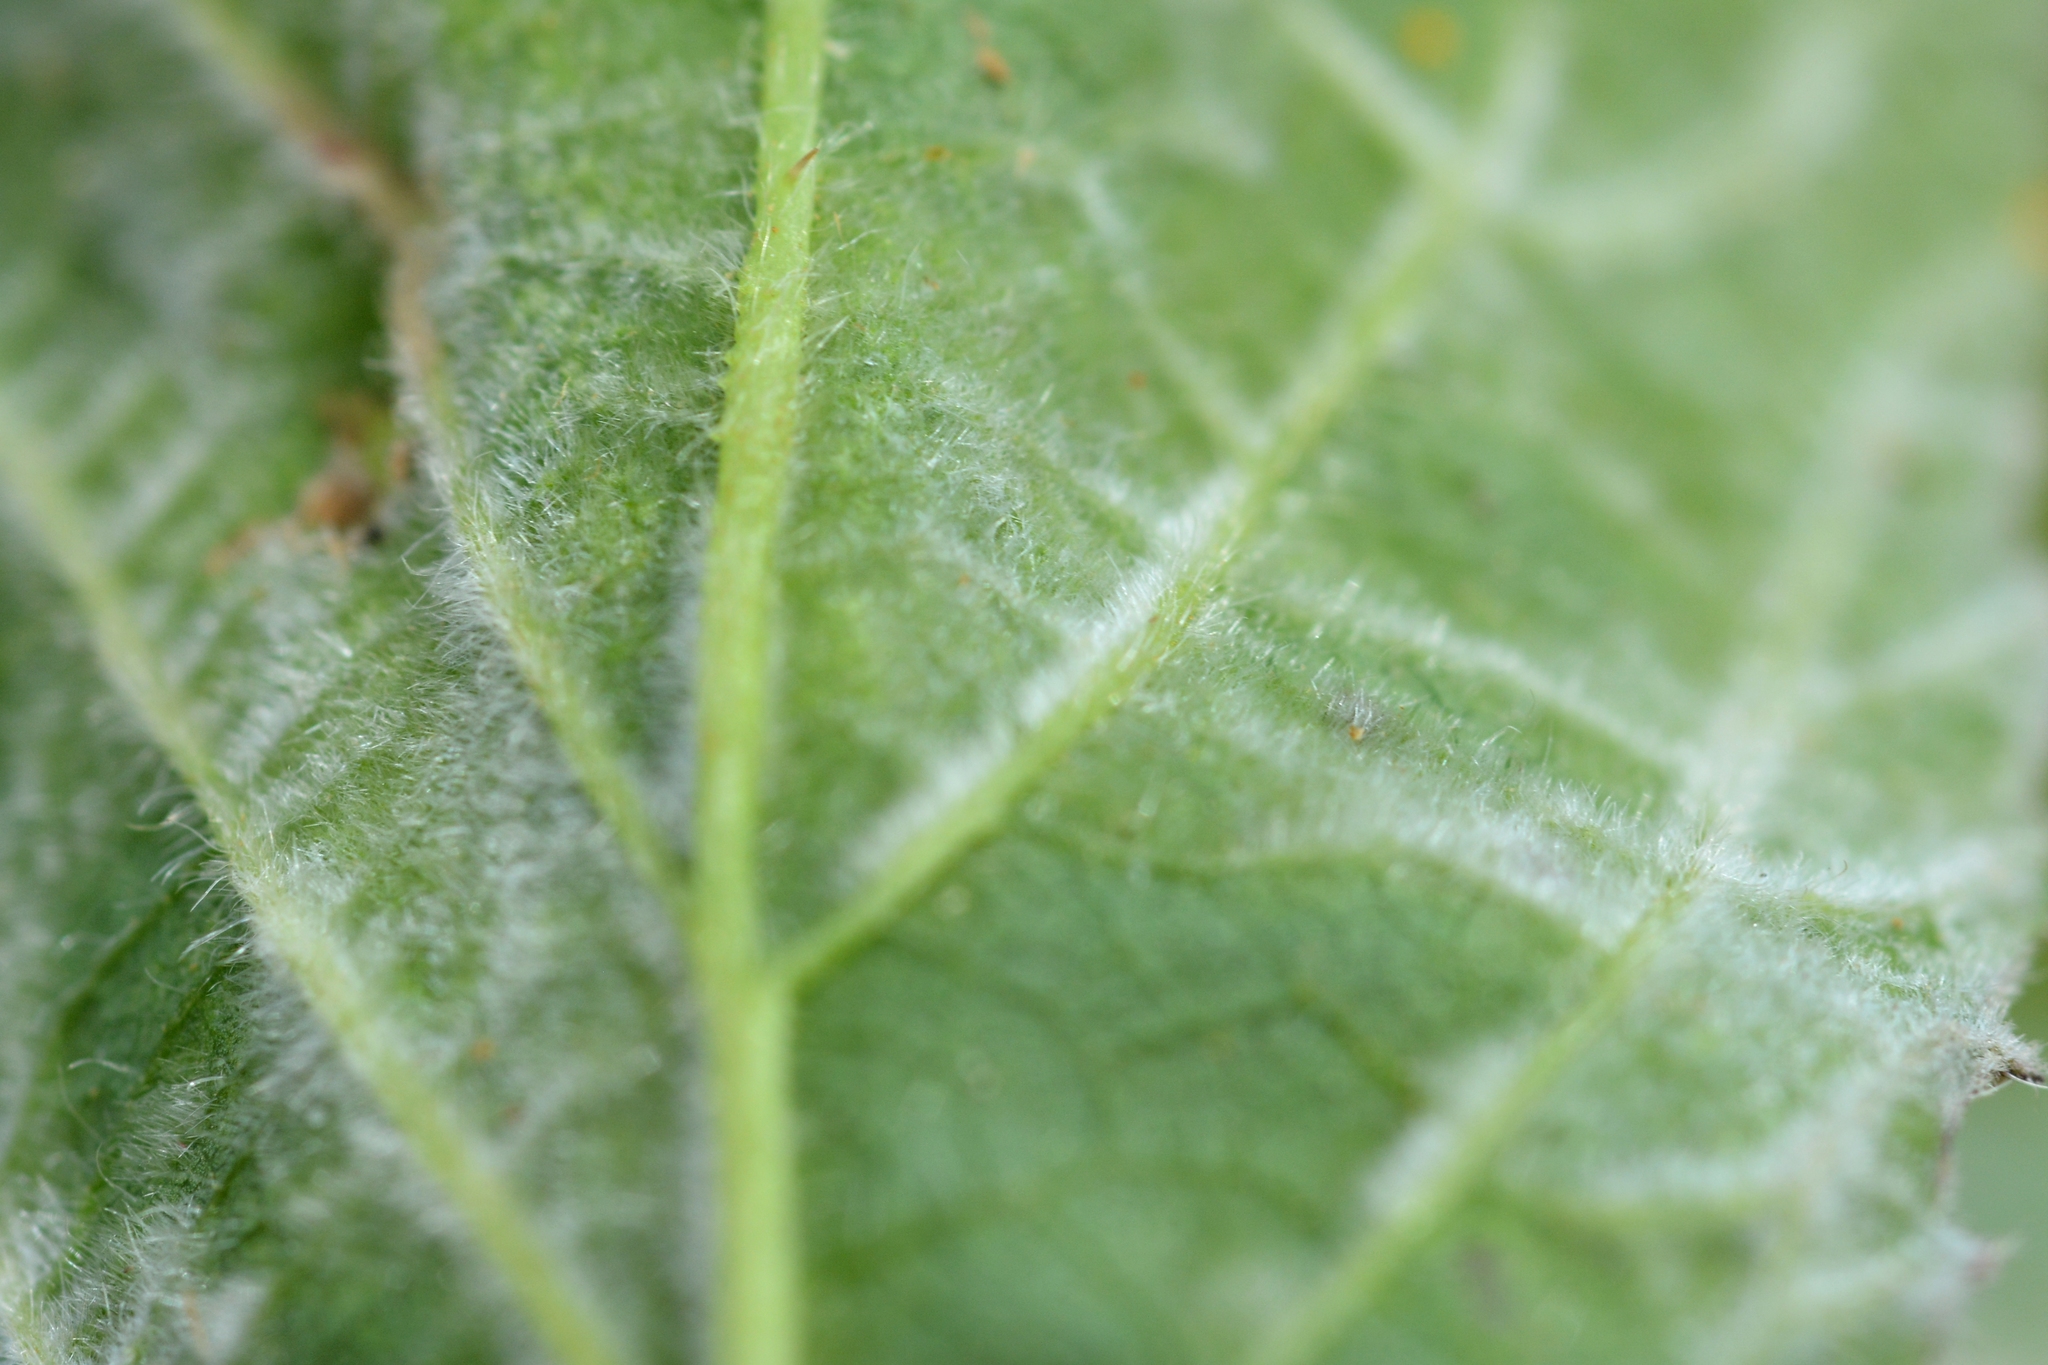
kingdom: Animalia
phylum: Arthropoda
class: Arachnida
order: Trombidiformes
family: Eriophyidae
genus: Epitrimerus
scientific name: Epitrimerus gibbosus
